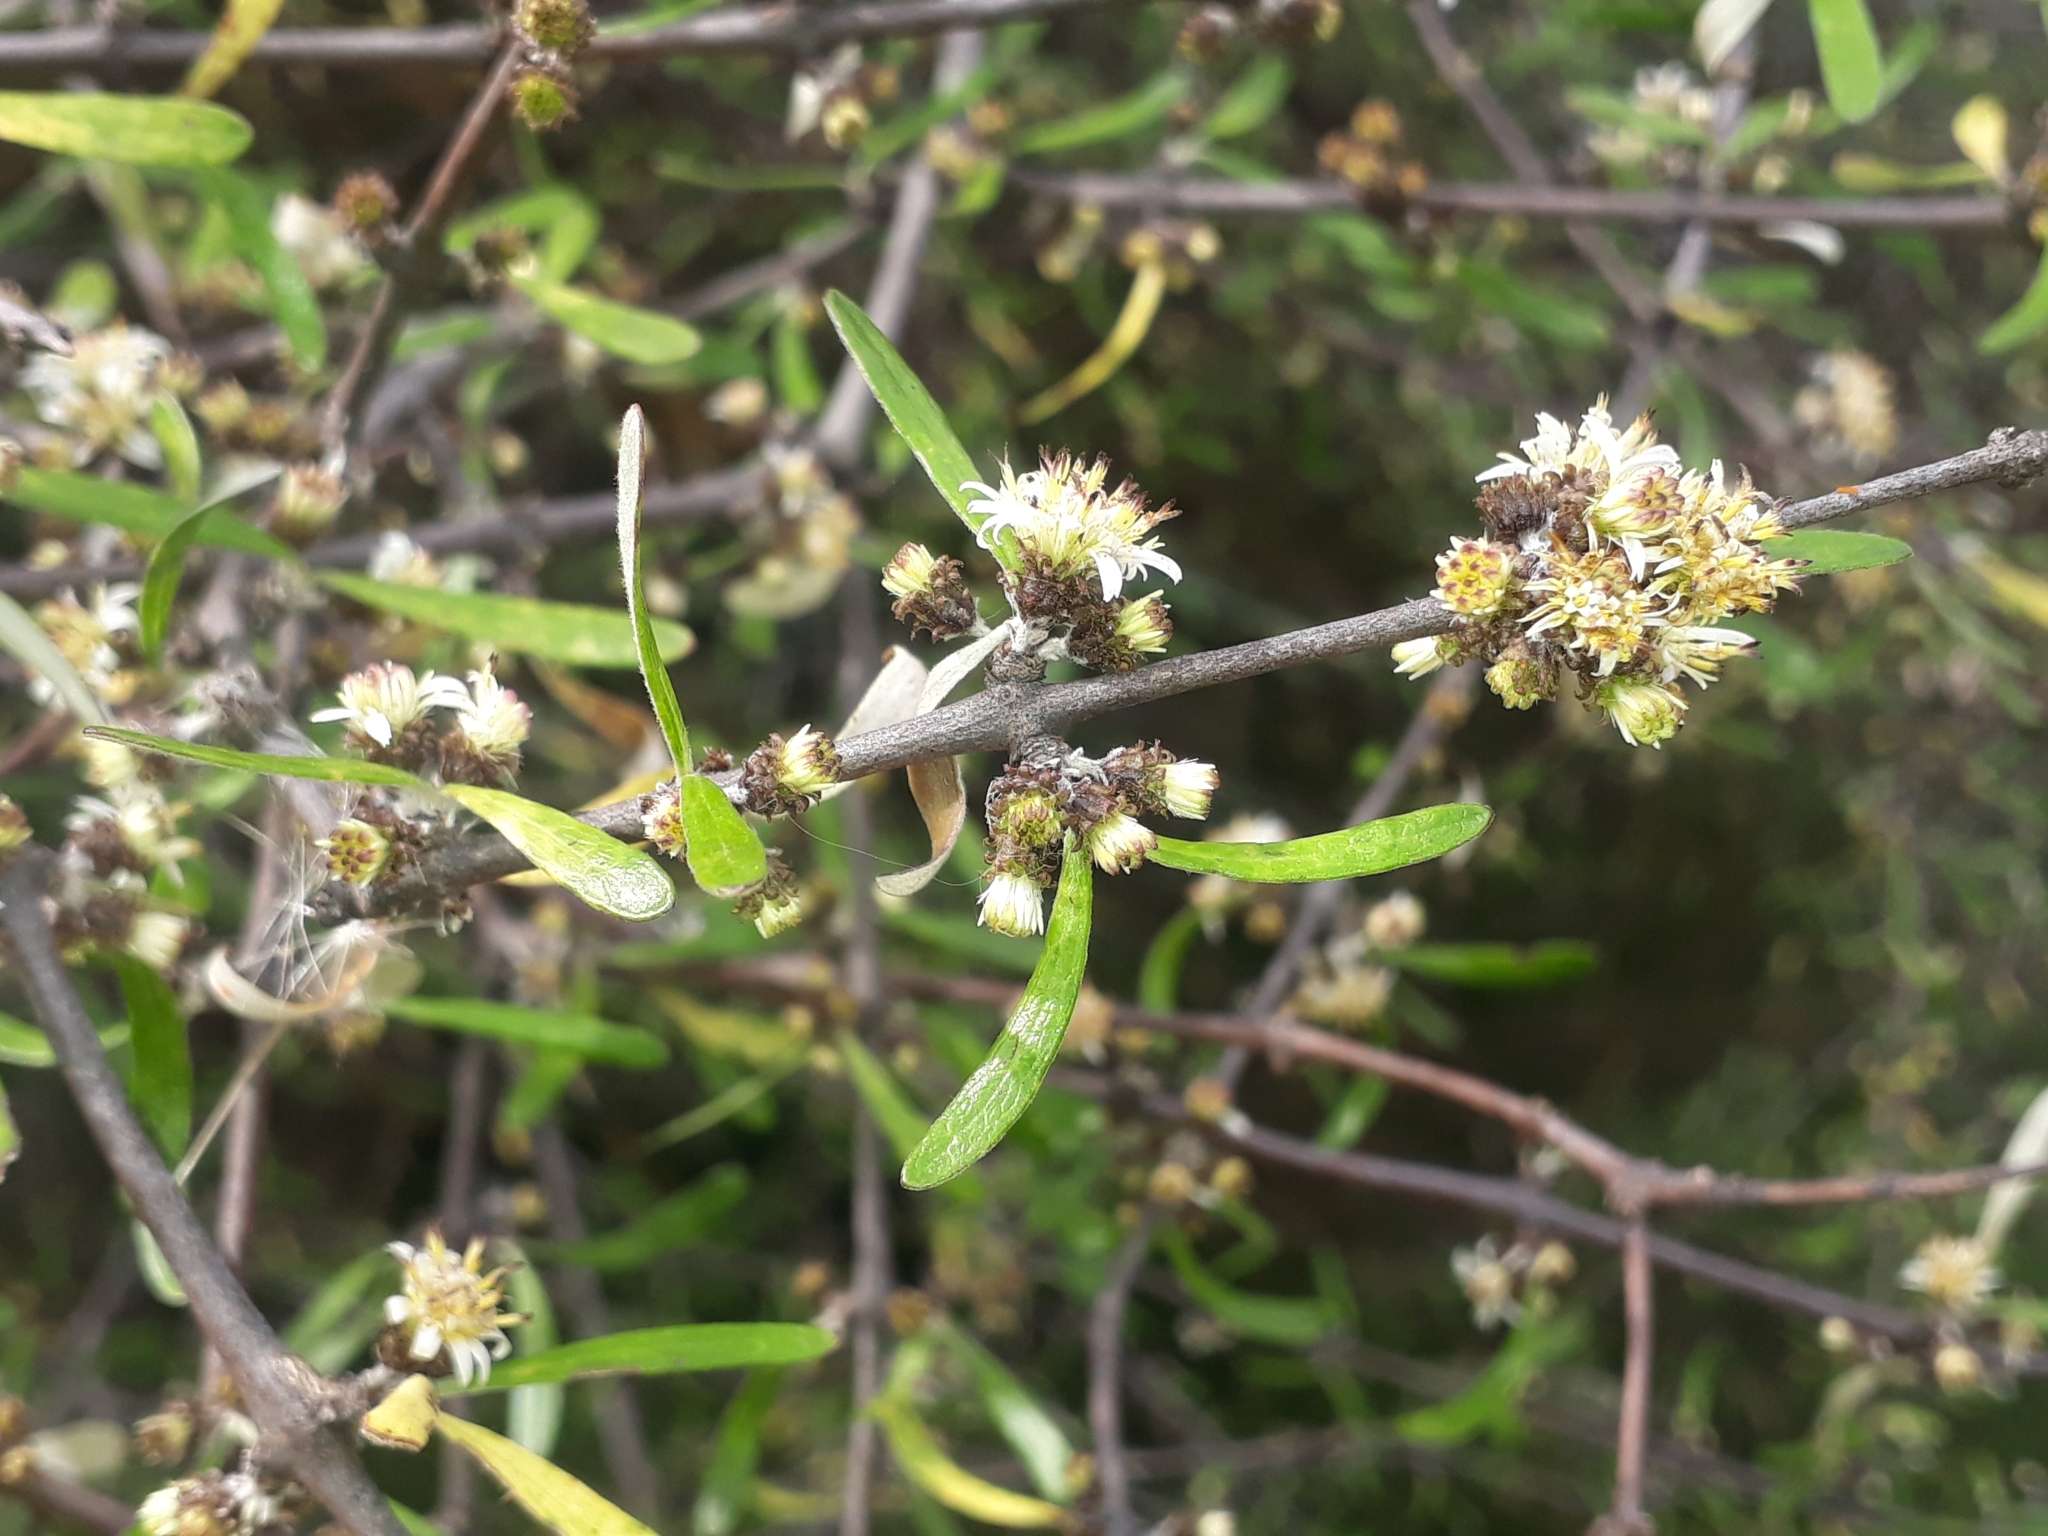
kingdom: Plantae
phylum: Tracheophyta
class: Magnoliopsida
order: Asterales
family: Asteraceae
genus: Olearia
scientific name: Olearia lineata
